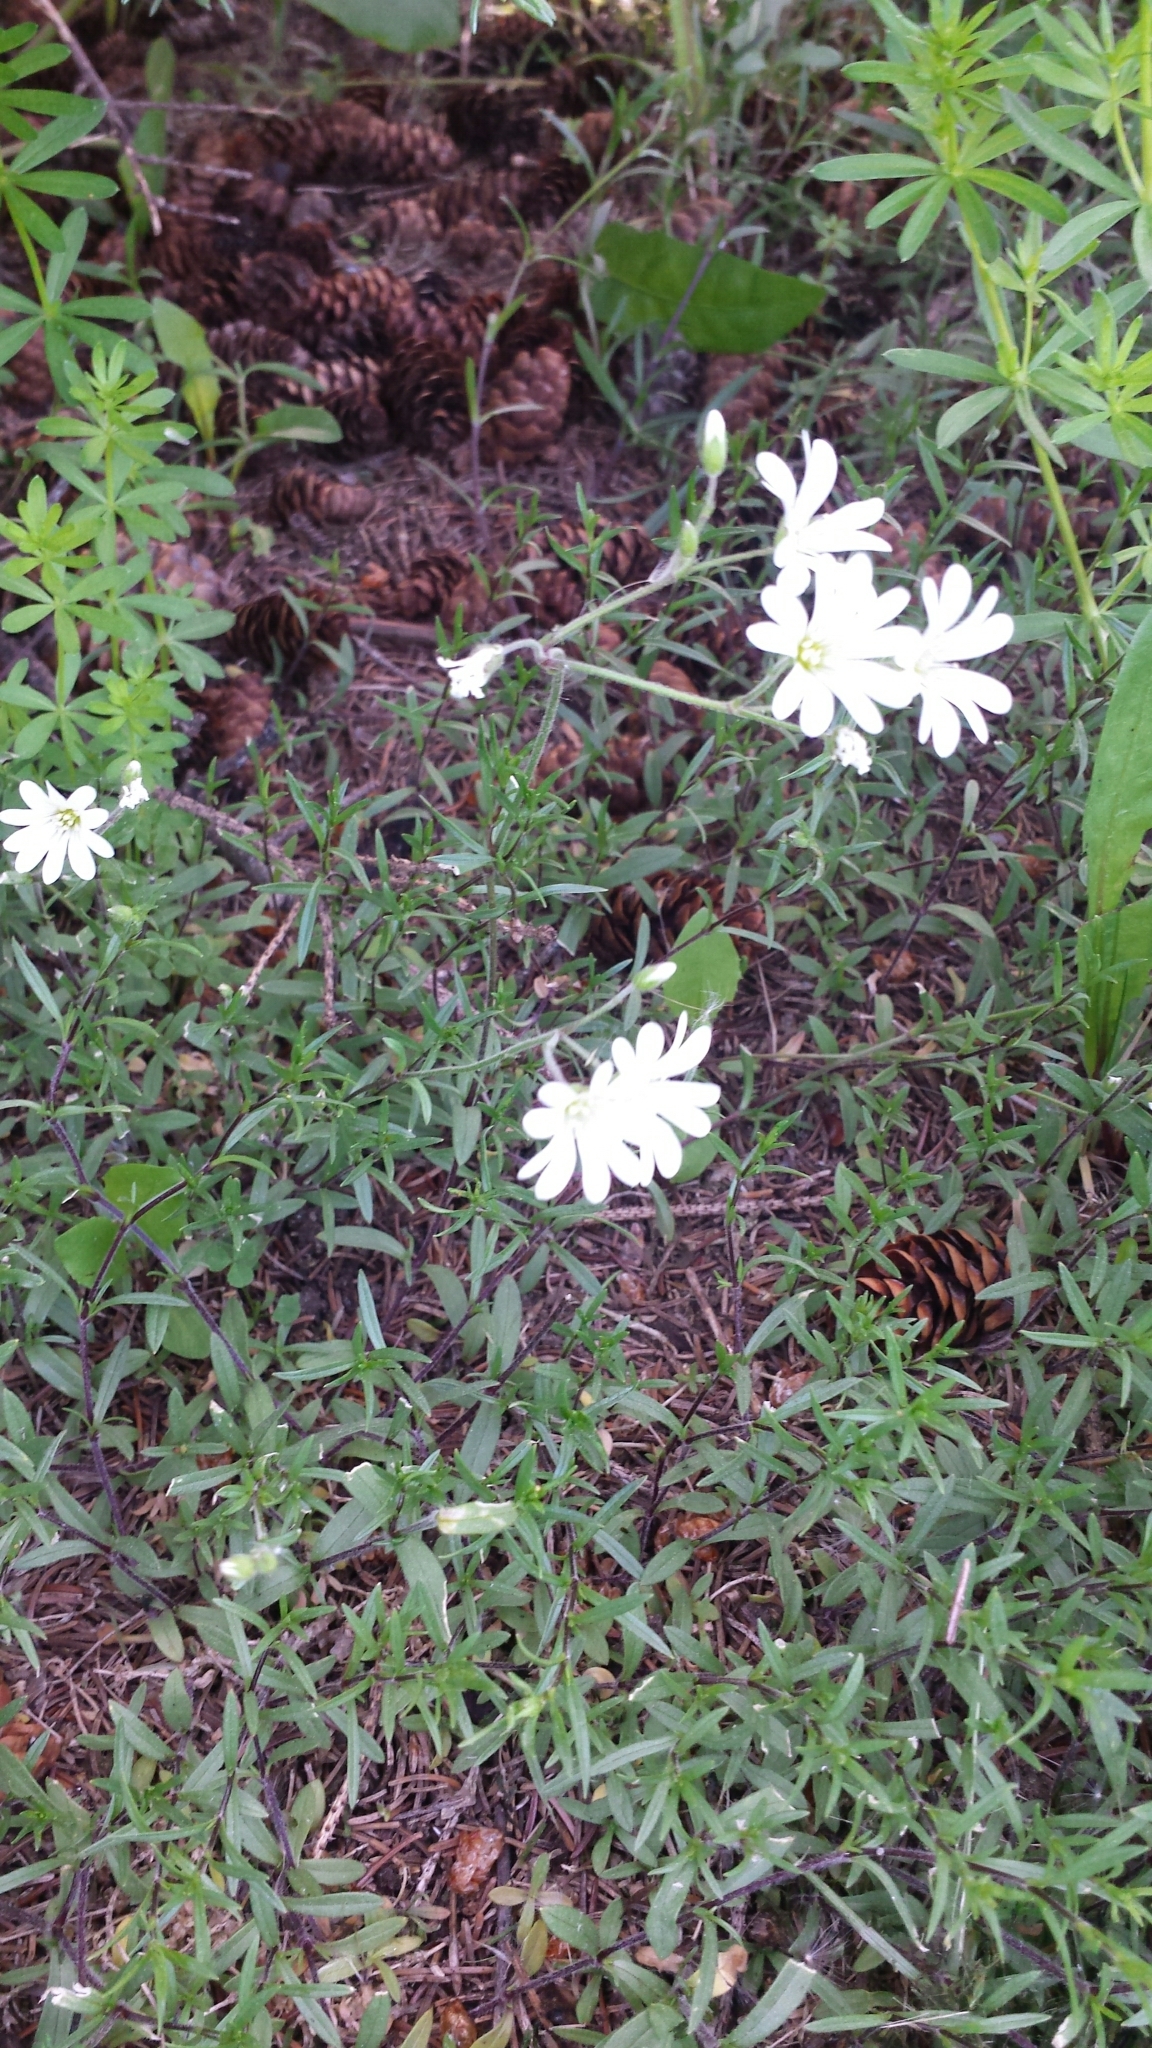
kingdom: Plantae
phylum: Tracheophyta
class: Magnoliopsida
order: Caryophyllales
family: Caryophyllaceae
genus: Cerastium
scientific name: Cerastium arvense
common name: Field mouse-ear
